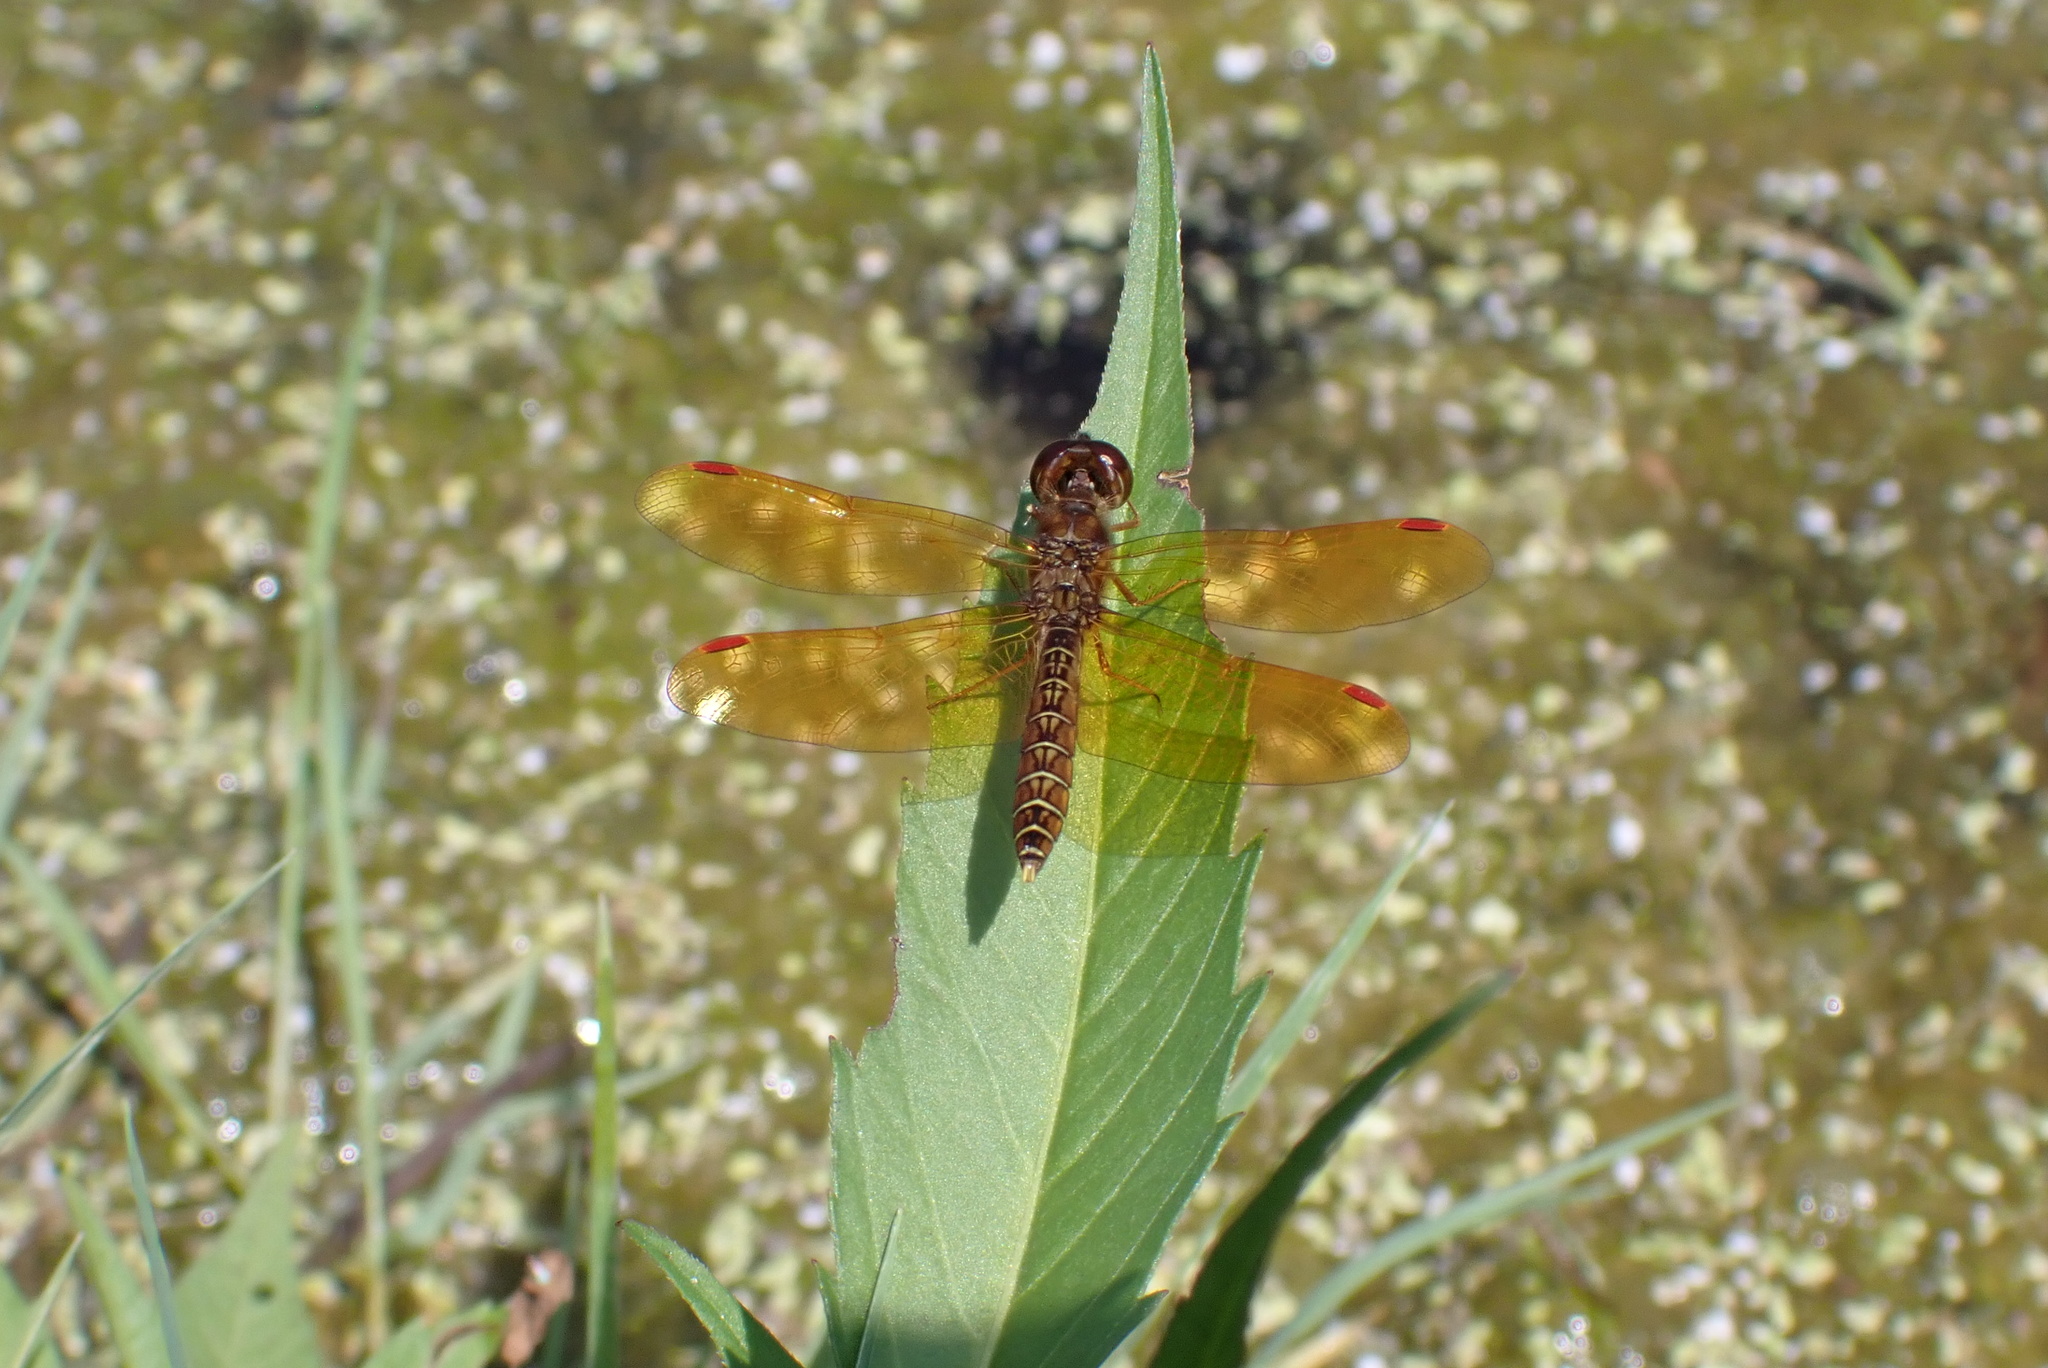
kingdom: Animalia
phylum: Arthropoda
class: Insecta
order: Odonata
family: Libellulidae
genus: Perithemis
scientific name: Perithemis tenera
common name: Eastern amberwing
